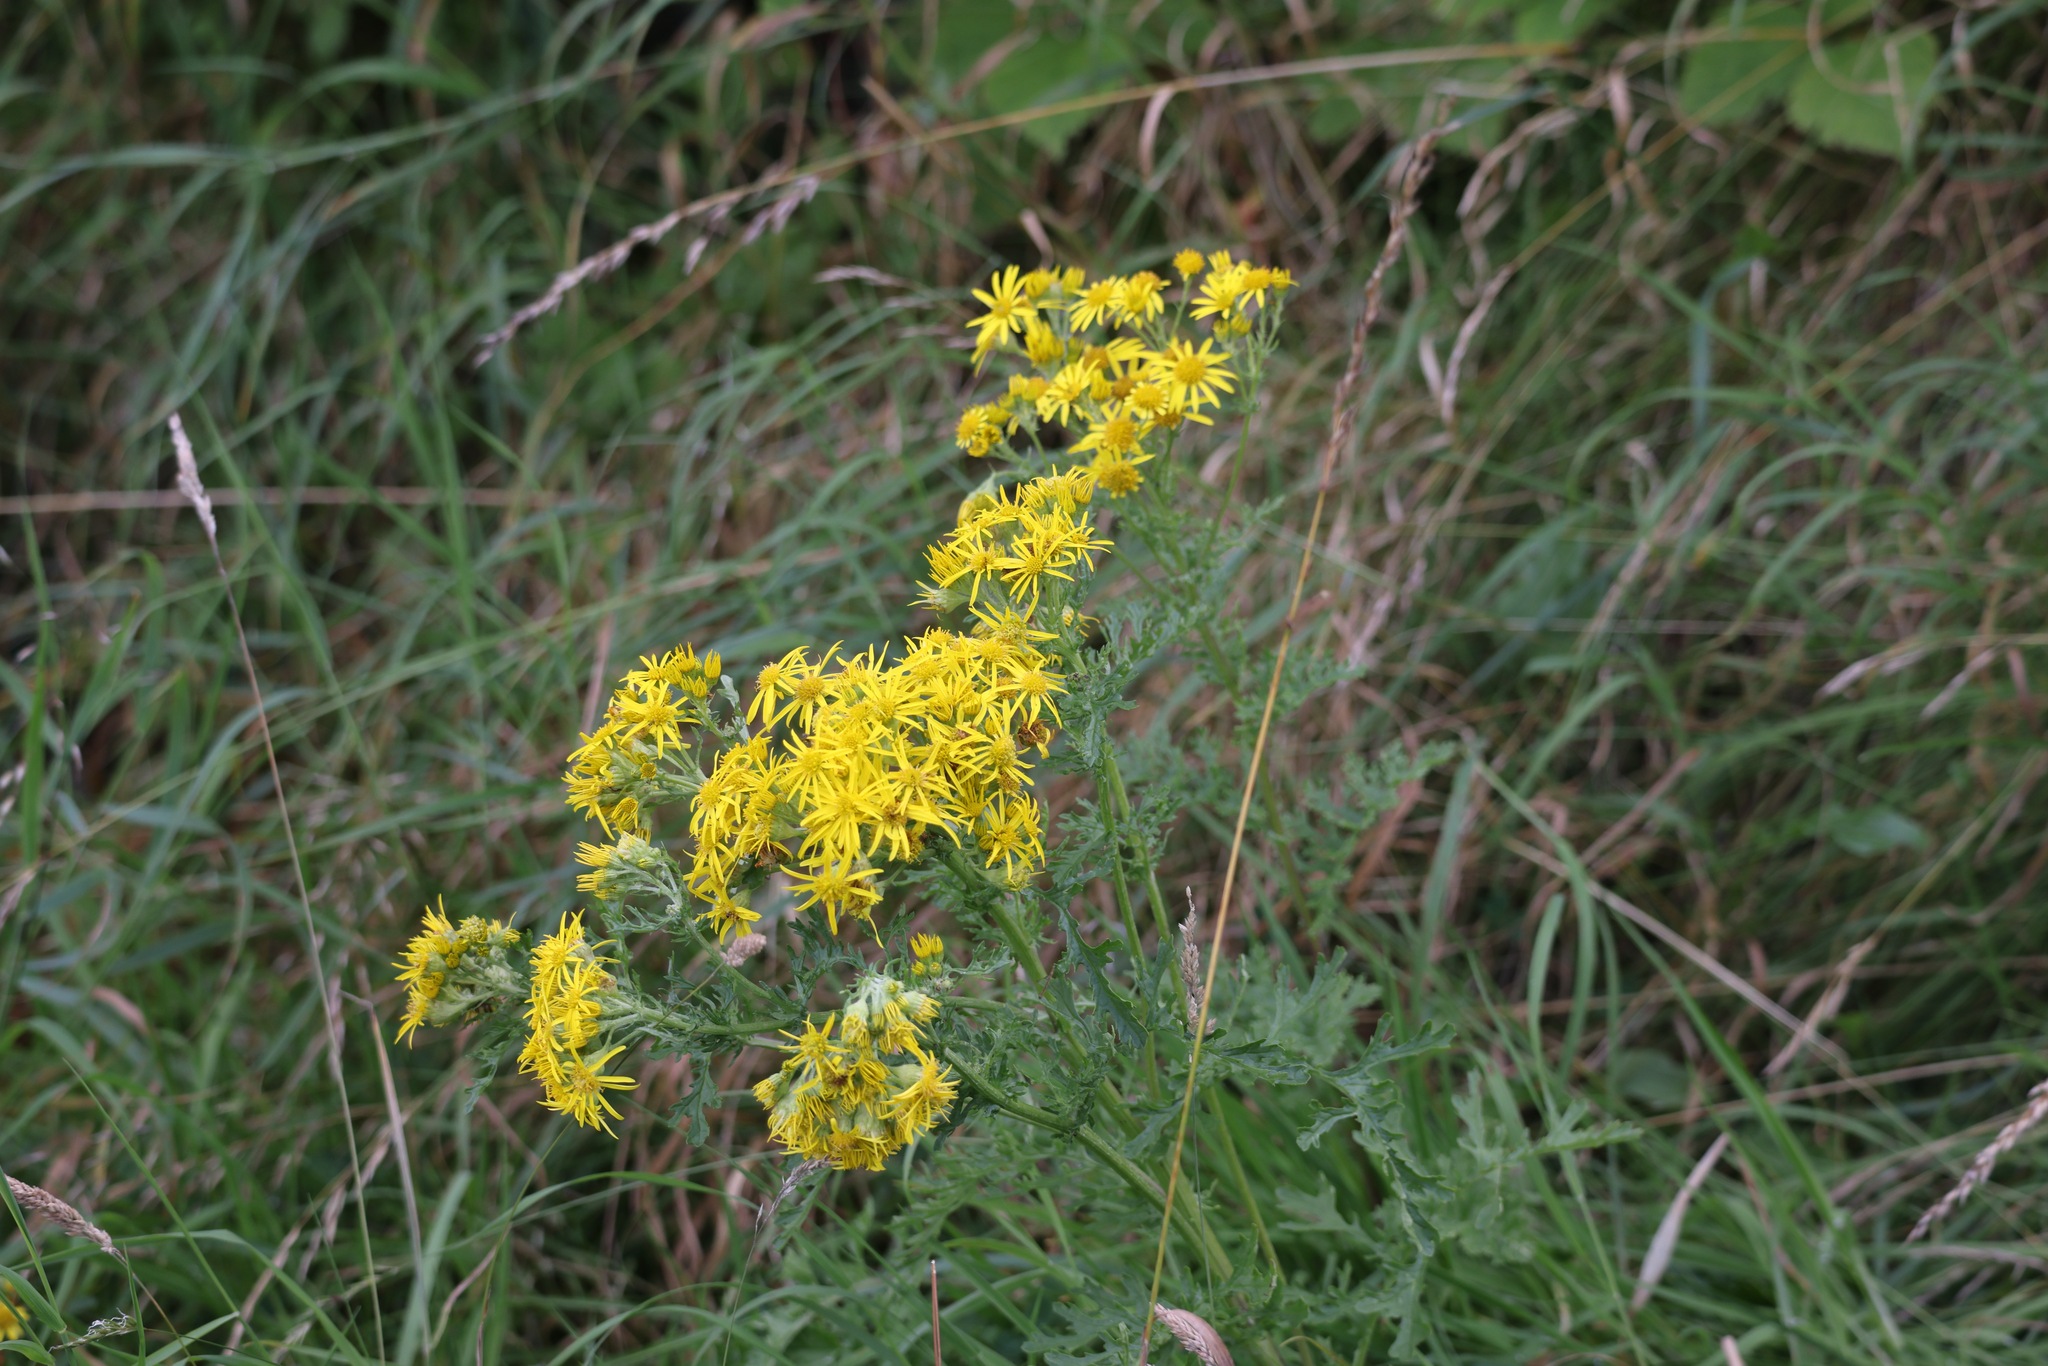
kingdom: Plantae
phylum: Tracheophyta
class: Magnoliopsida
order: Asterales
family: Asteraceae
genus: Jacobaea
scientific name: Jacobaea vulgaris
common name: Stinking willie
